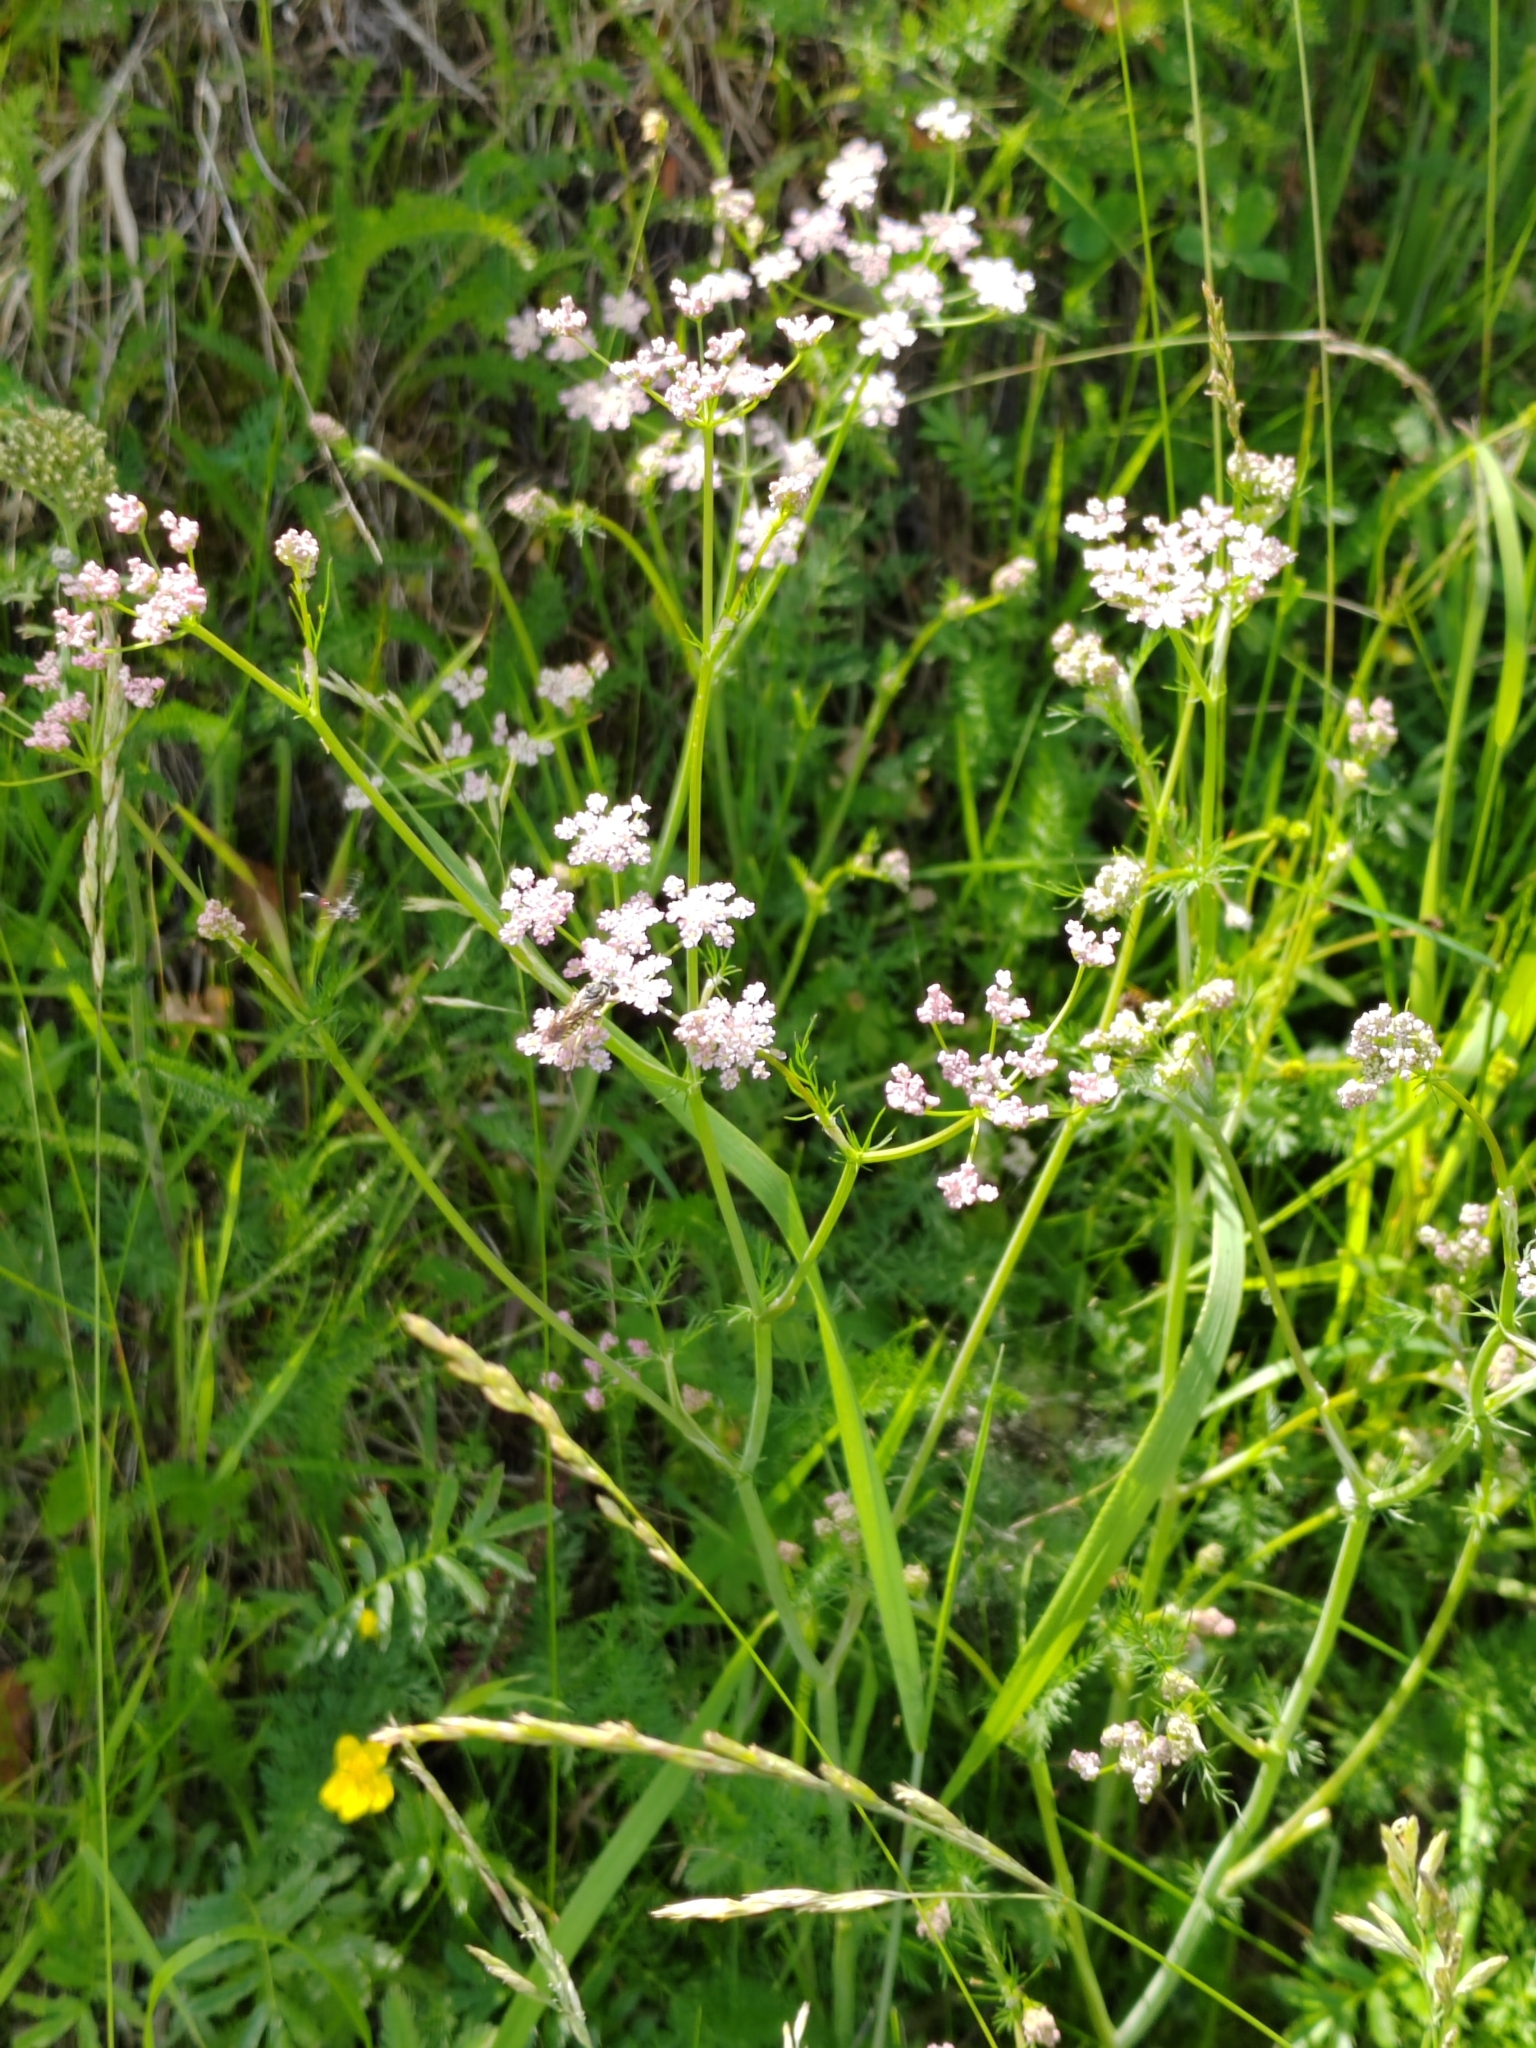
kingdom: Plantae
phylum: Tracheophyta
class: Magnoliopsida
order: Apiales
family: Apiaceae
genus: Carum
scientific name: Carum carvi
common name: Caraway
